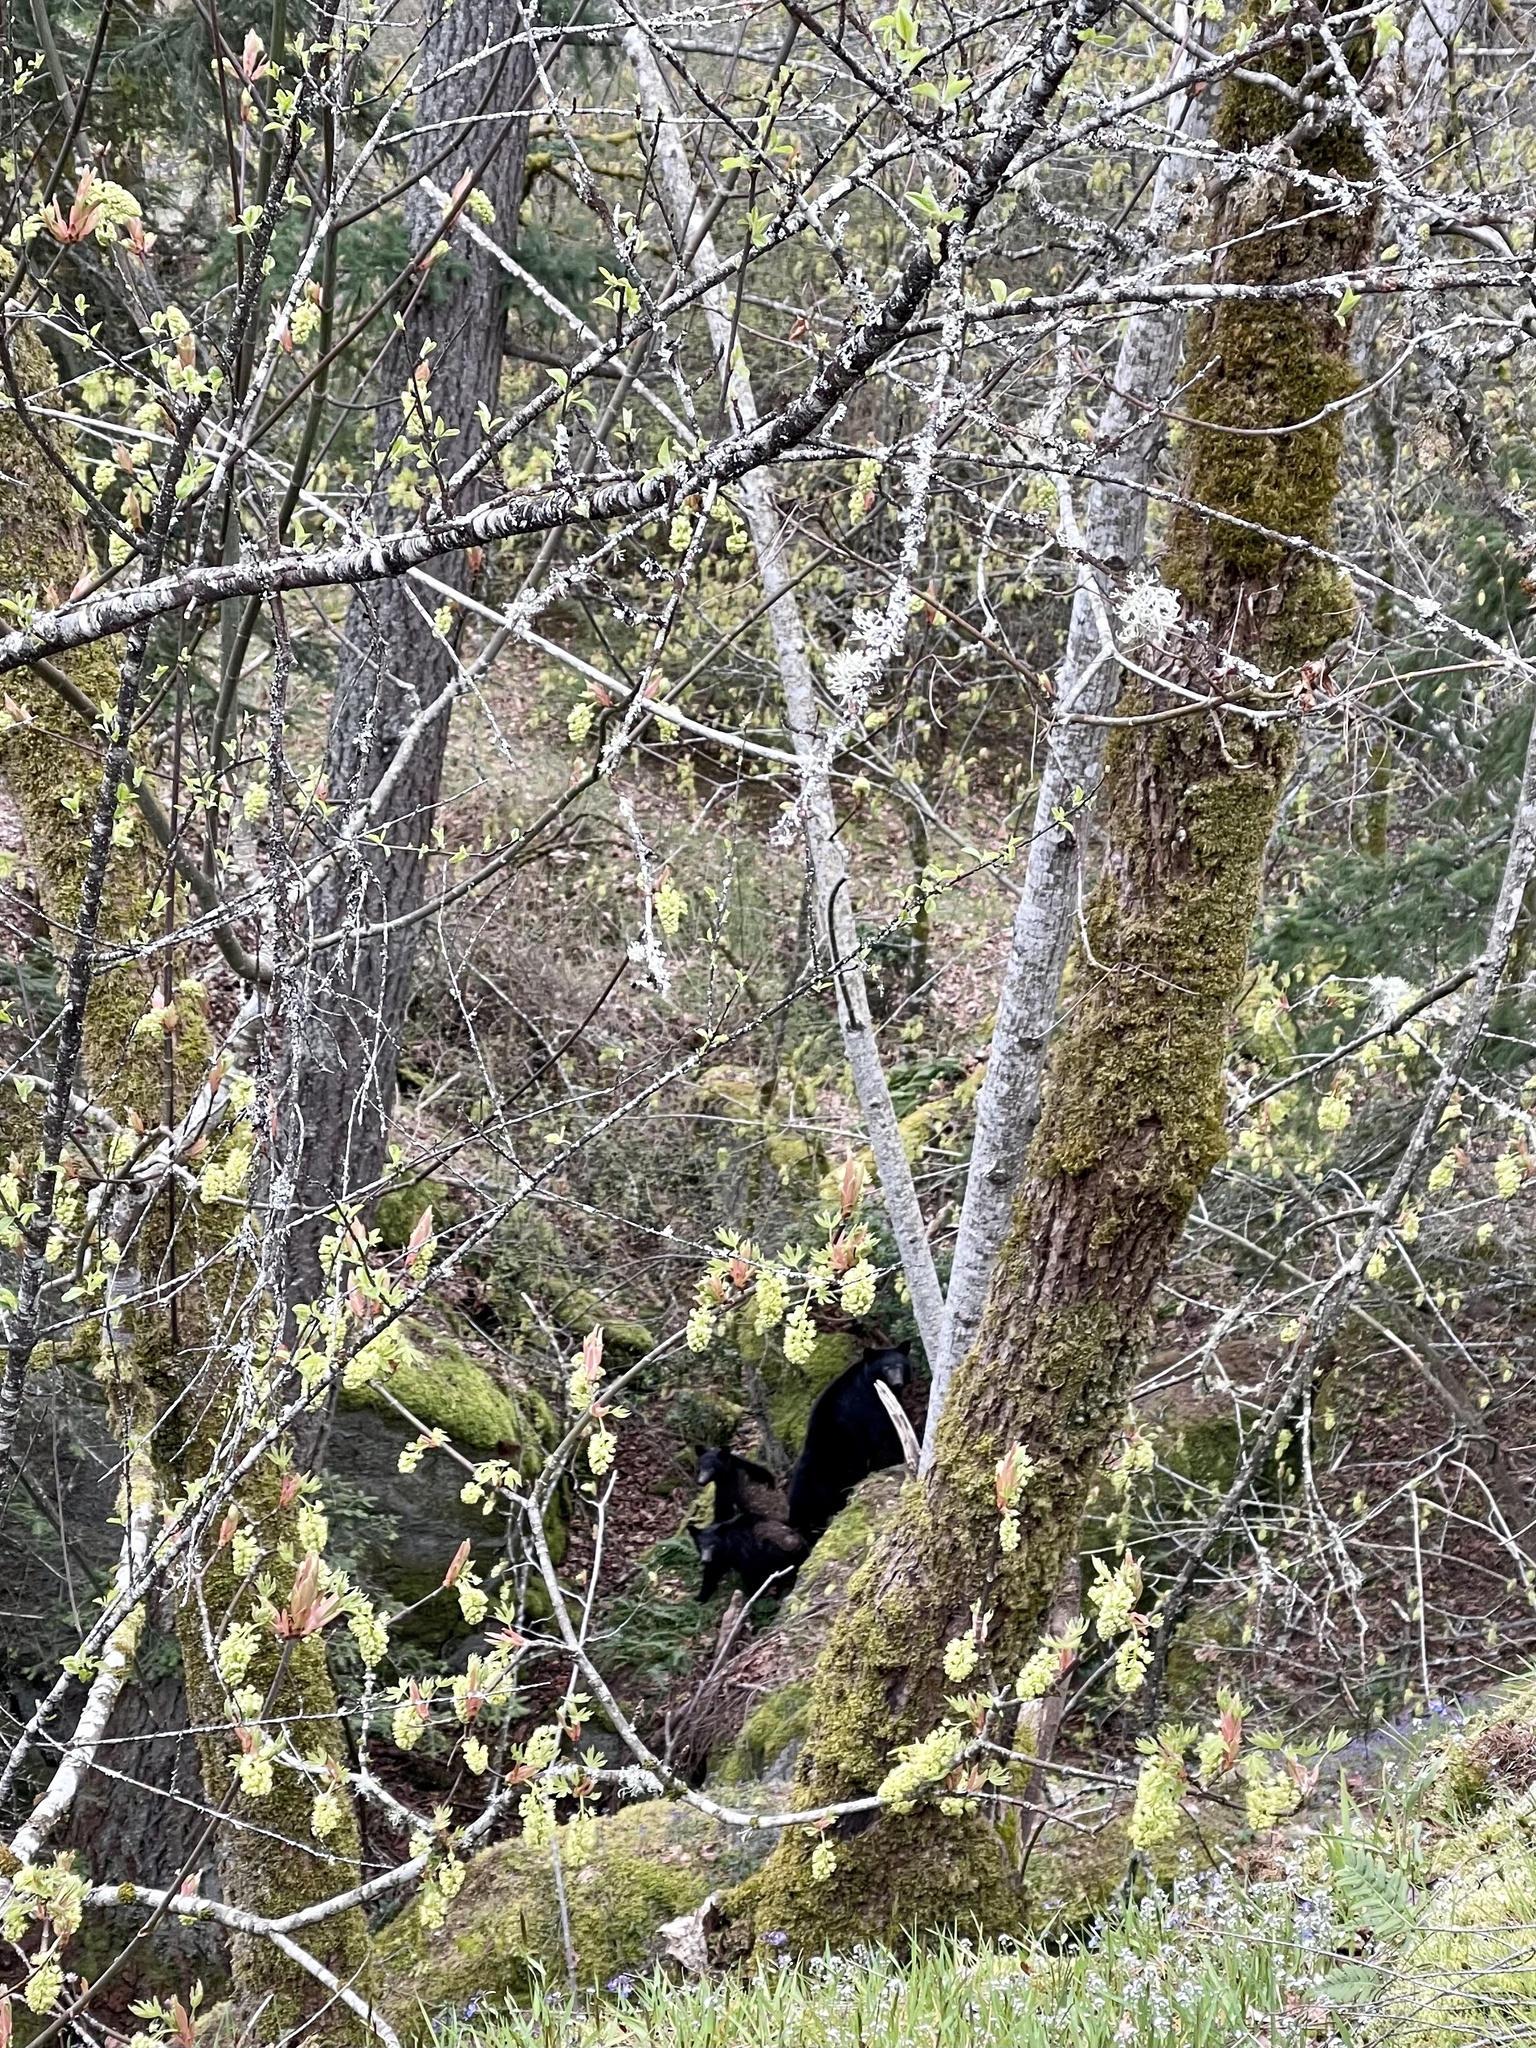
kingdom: Animalia
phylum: Chordata
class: Mammalia
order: Carnivora
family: Ursidae
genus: Ursus
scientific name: Ursus americanus
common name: American black bear
